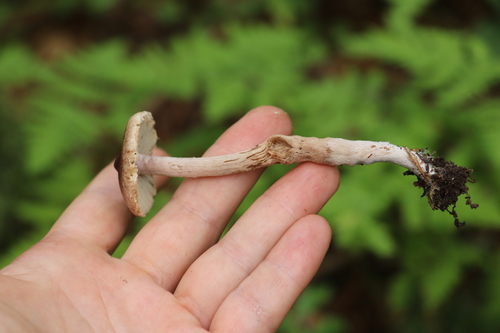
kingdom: Fungi
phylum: Basidiomycota
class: Agaricomycetes
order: Agaricales
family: Inocybaceae
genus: Inocybe
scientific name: Inocybe lacera
